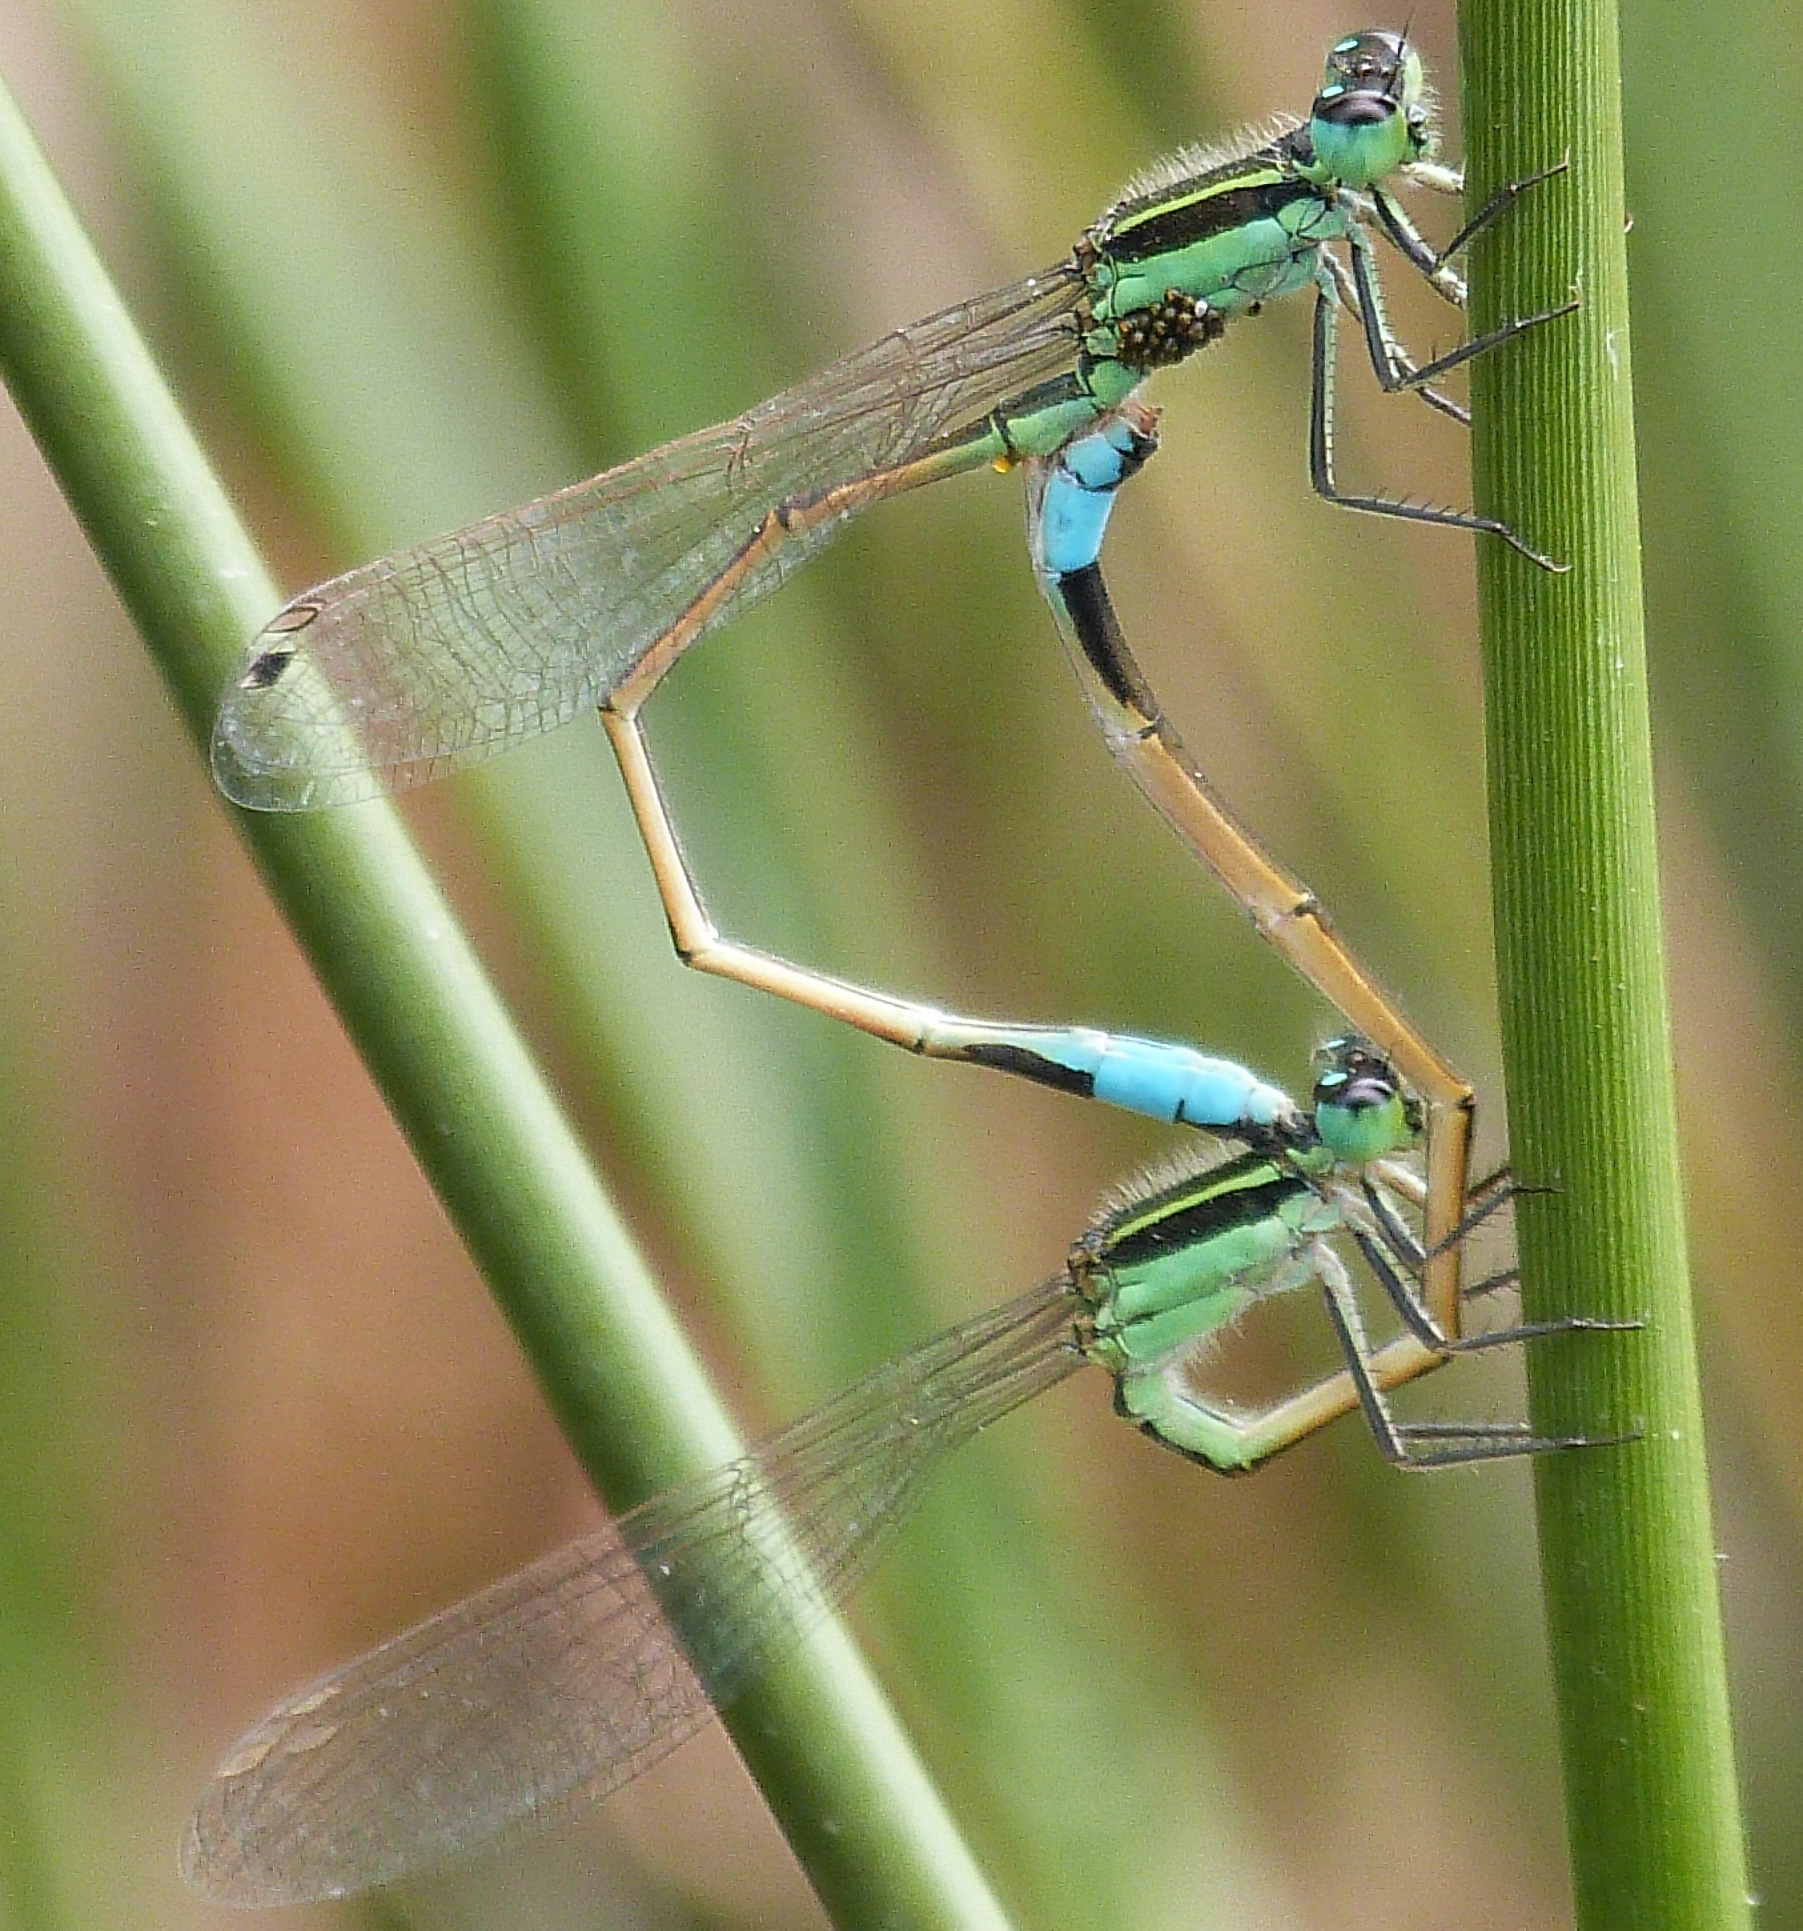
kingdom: Animalia
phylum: Arthropoda
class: Insecta
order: Odonata
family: Coenagrionidae
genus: Ischnura
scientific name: Ischnura ramburii
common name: Rambur's forktail
